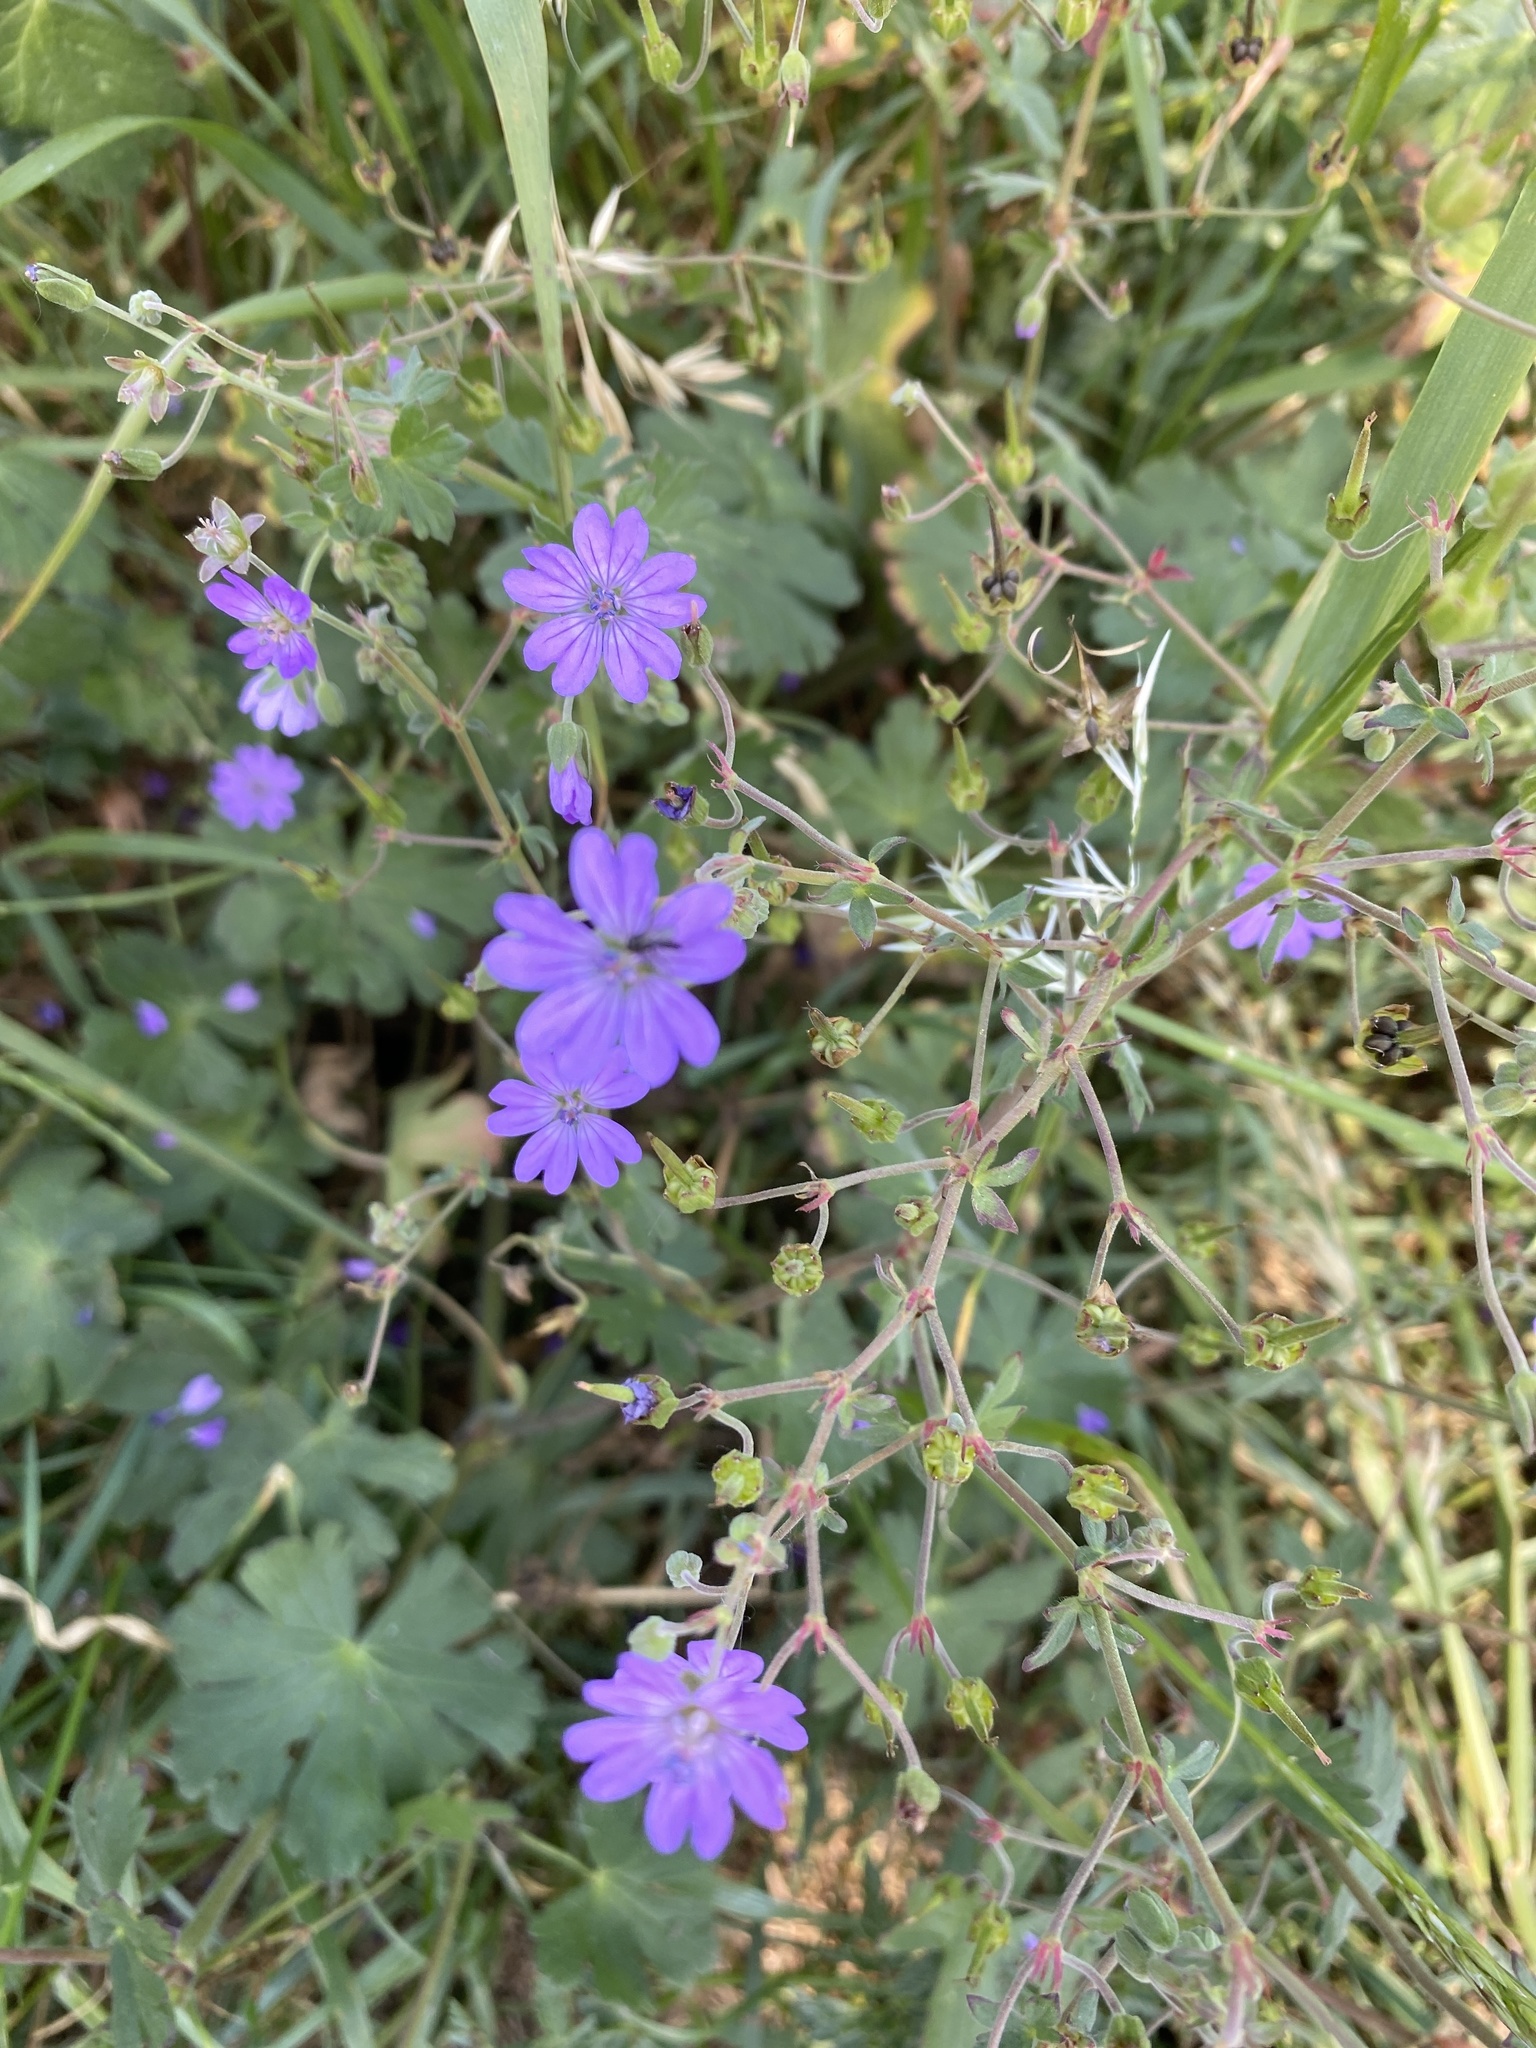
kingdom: Plantae
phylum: Tracheophyta
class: Magnoliopsida
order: Geraniales
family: Geraniaceae
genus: Geranium
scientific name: Geranium pyrenaicum
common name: Hedgerow crane's-bill
